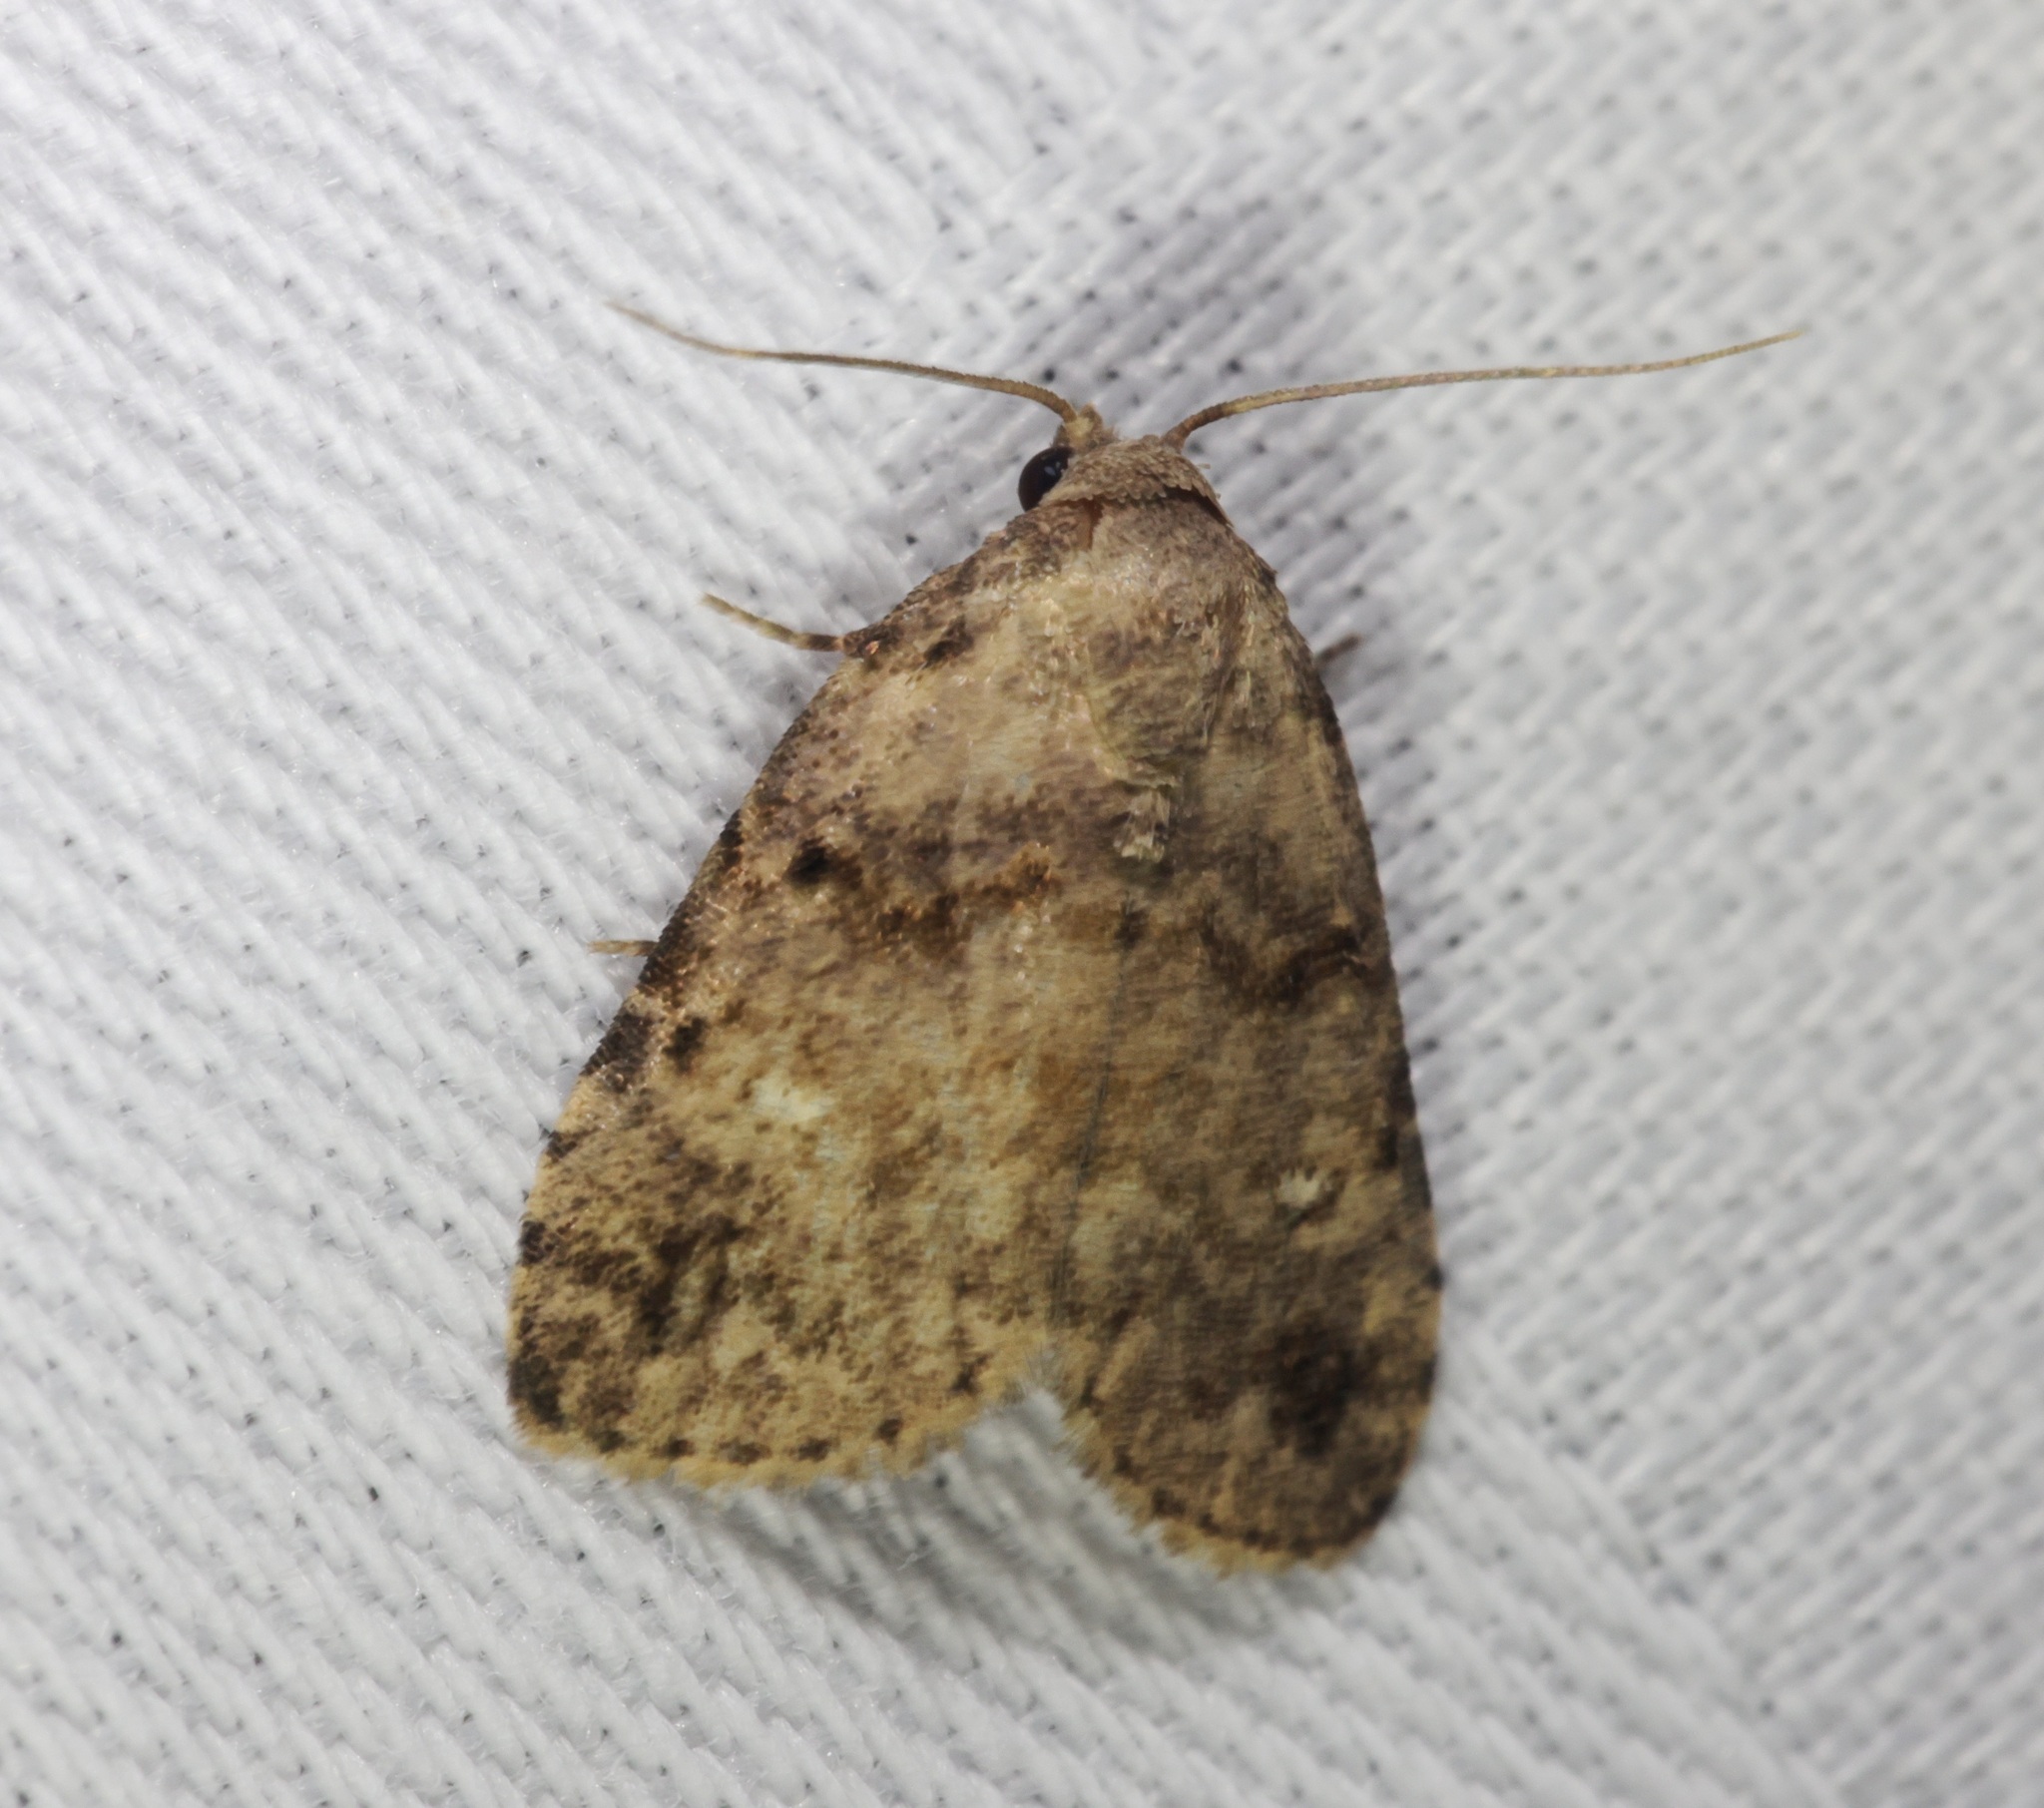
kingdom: Animalia
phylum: Arthropoda
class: Insecta
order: Lepidoptera
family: Erebidae
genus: Bellulia
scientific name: Bellulia galsworthyi
